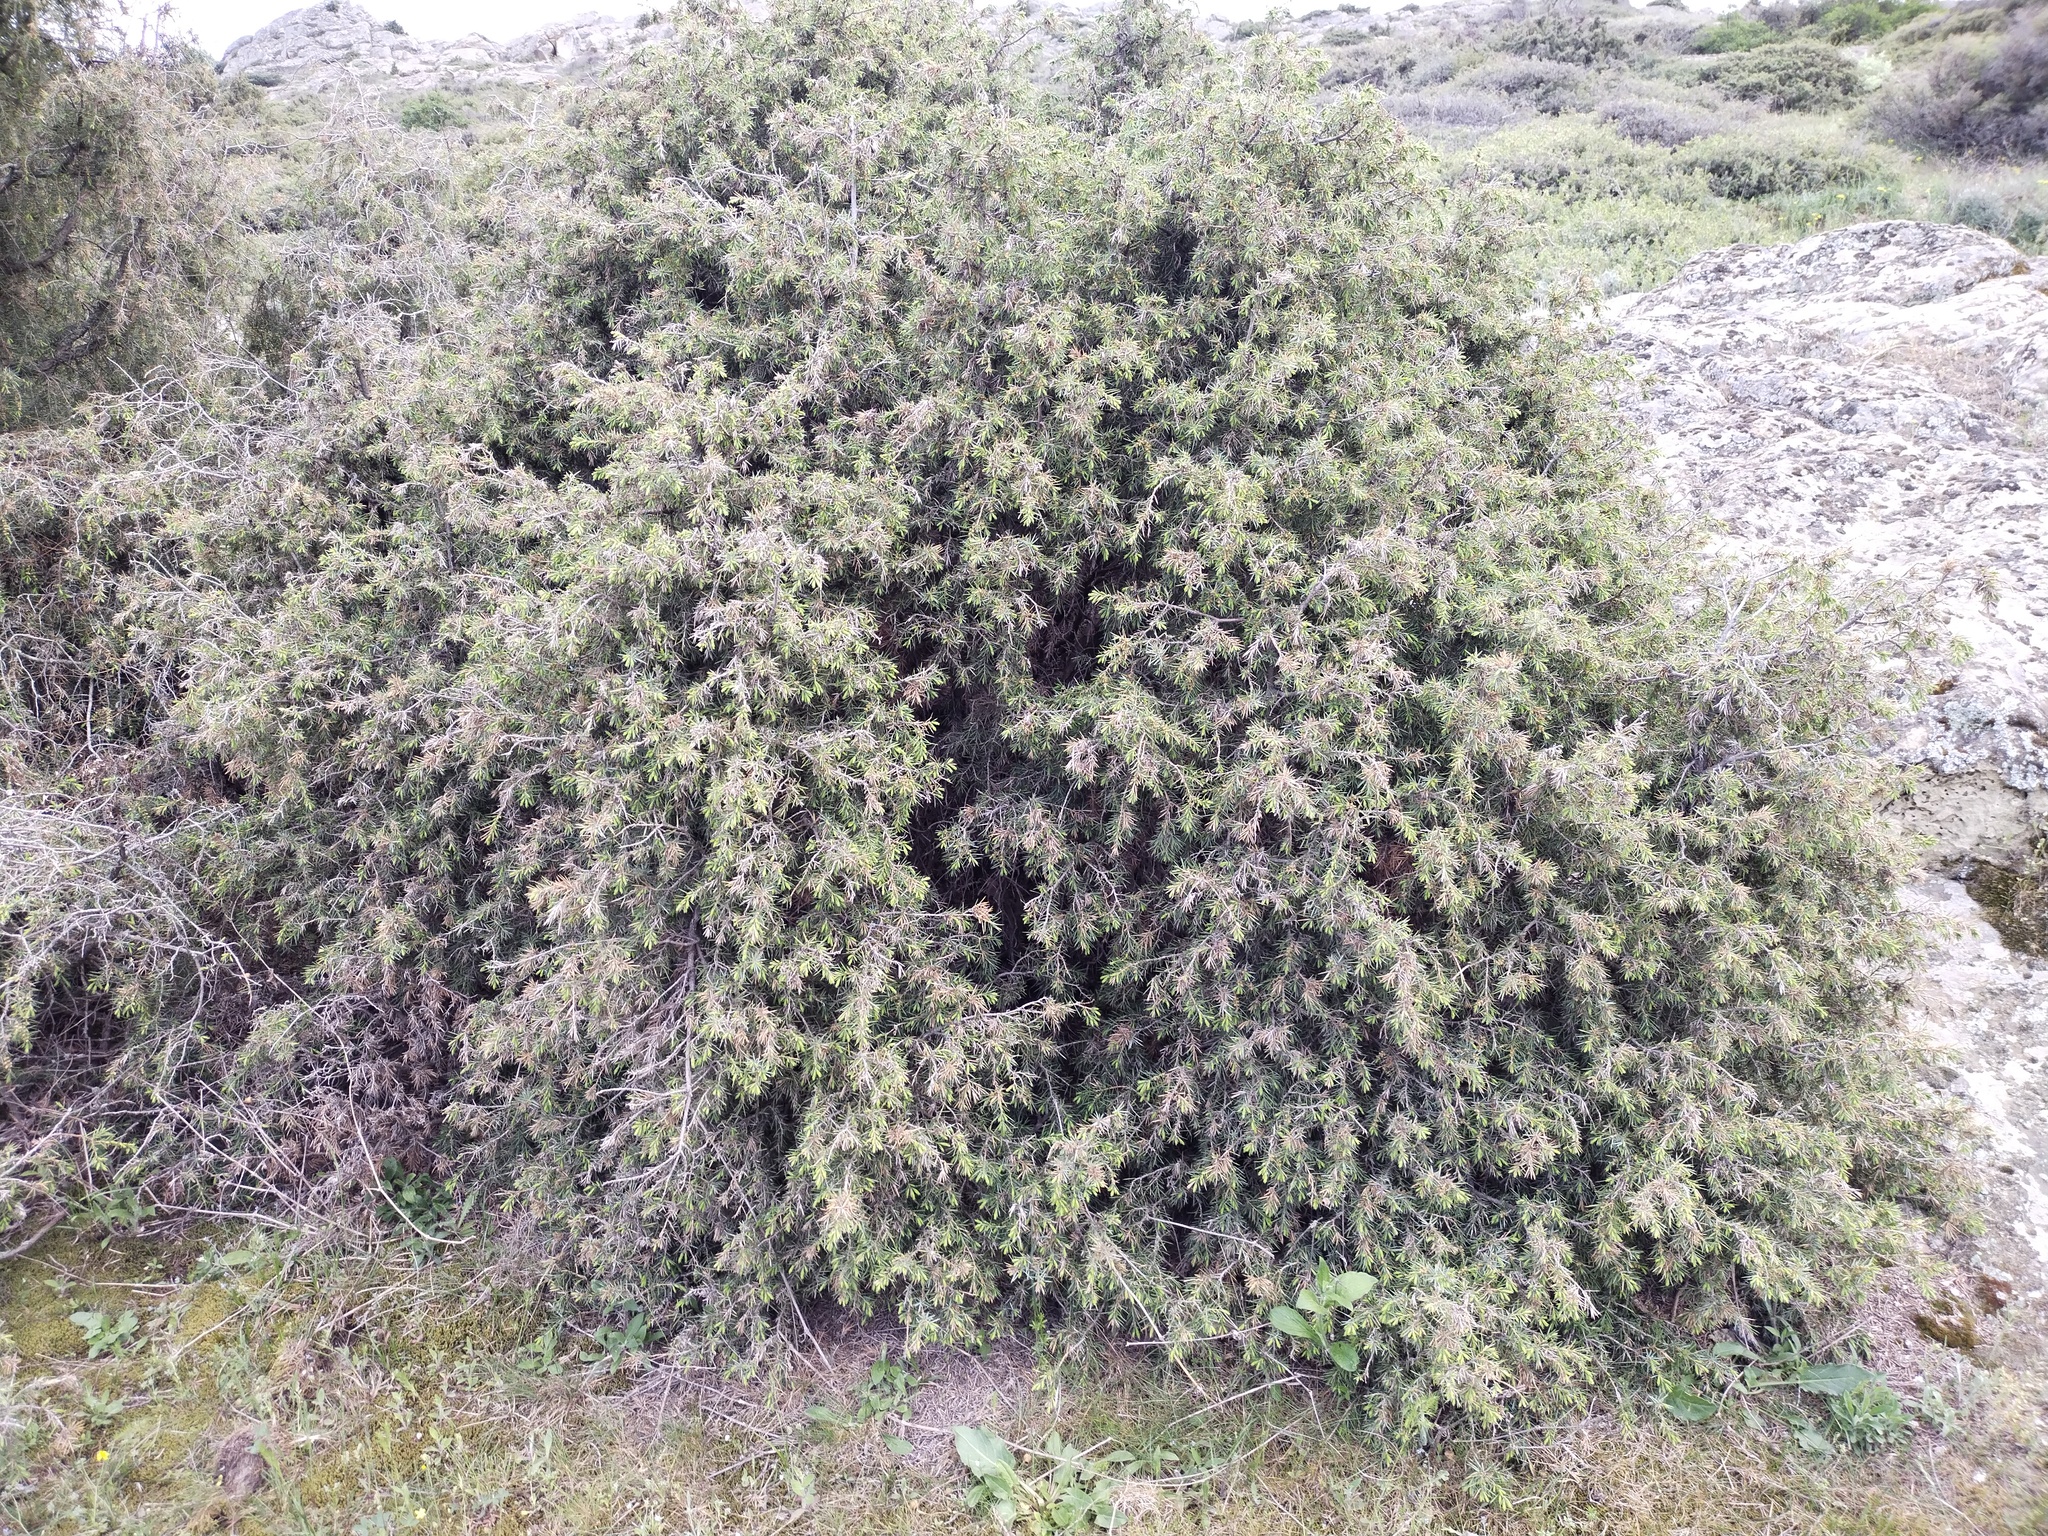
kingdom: Plantae
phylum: Tracheophyta
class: Pinopsida
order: Pinales
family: Cupressaceae
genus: Juniperus
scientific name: Juniperus communis
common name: Common juniper
